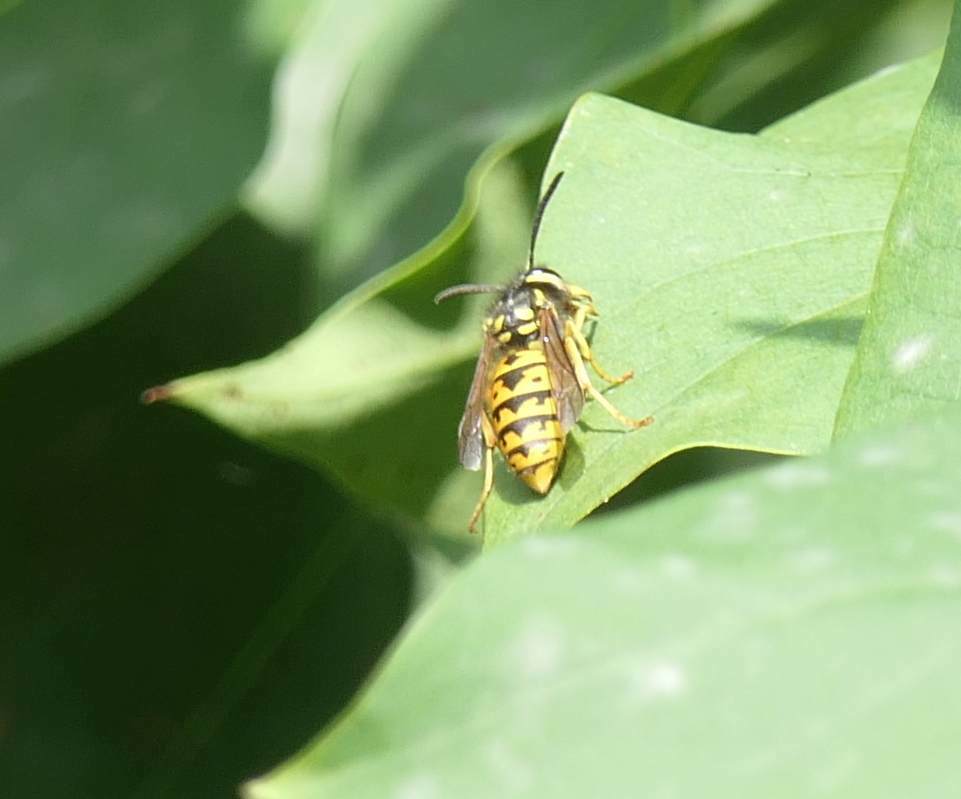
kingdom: Animalia
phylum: Arthropoda
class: Insecta
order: Hymenoptera
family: Vespidae
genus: Vespula
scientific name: Vespula germanica
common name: German wasp
